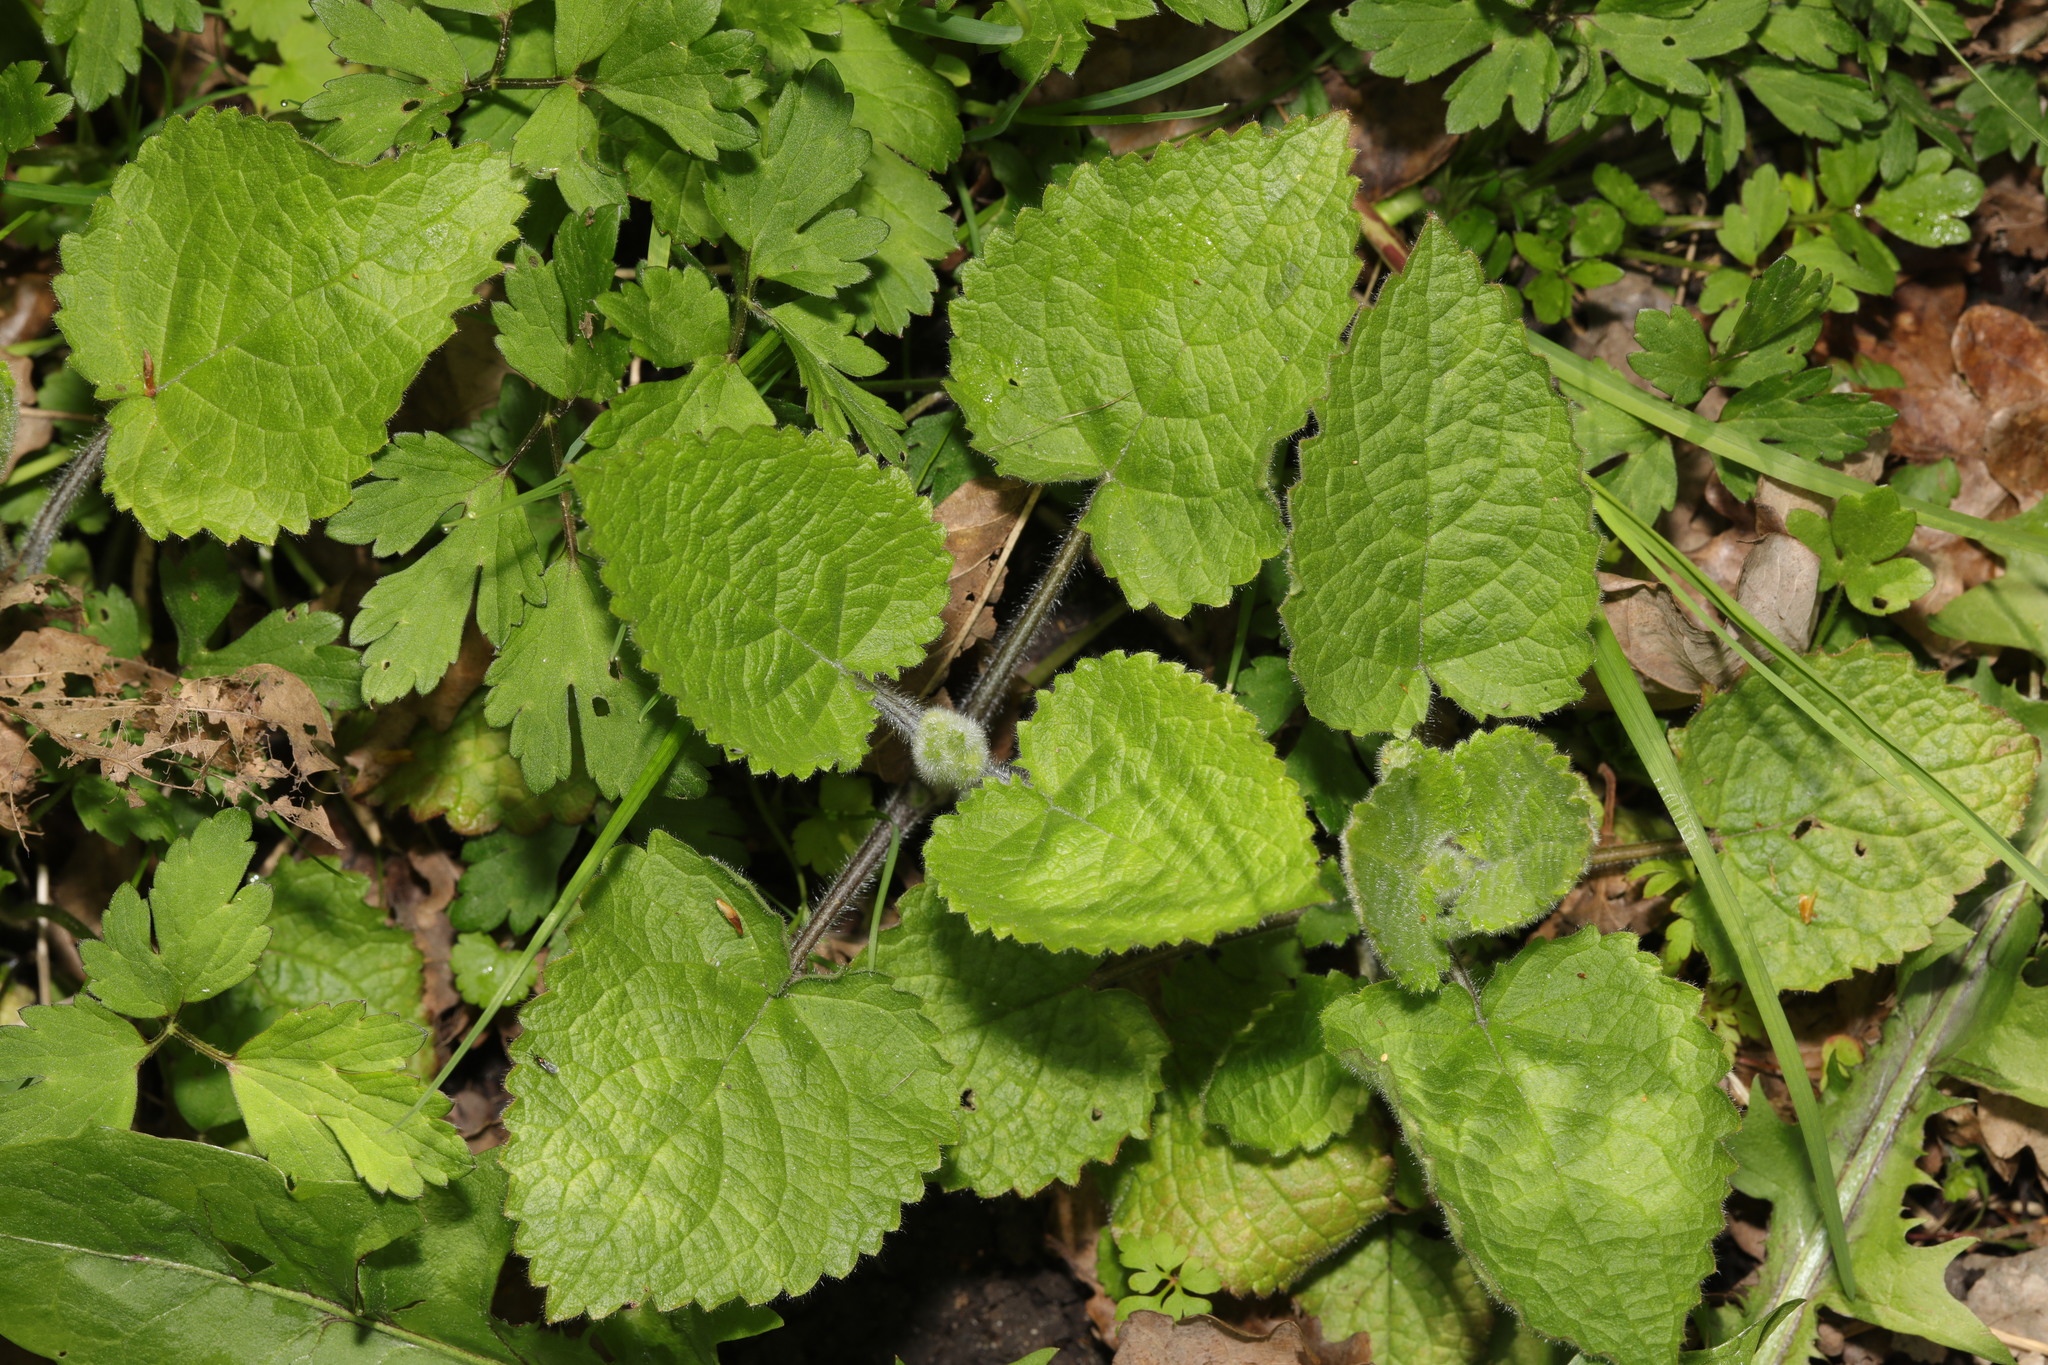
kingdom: Plantae
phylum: Tracheophyta
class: Magnoliopsida
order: Lamiales
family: Lamiaceae
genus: Stachys
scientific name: Stachys sylvatica
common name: Hedge woundwort
